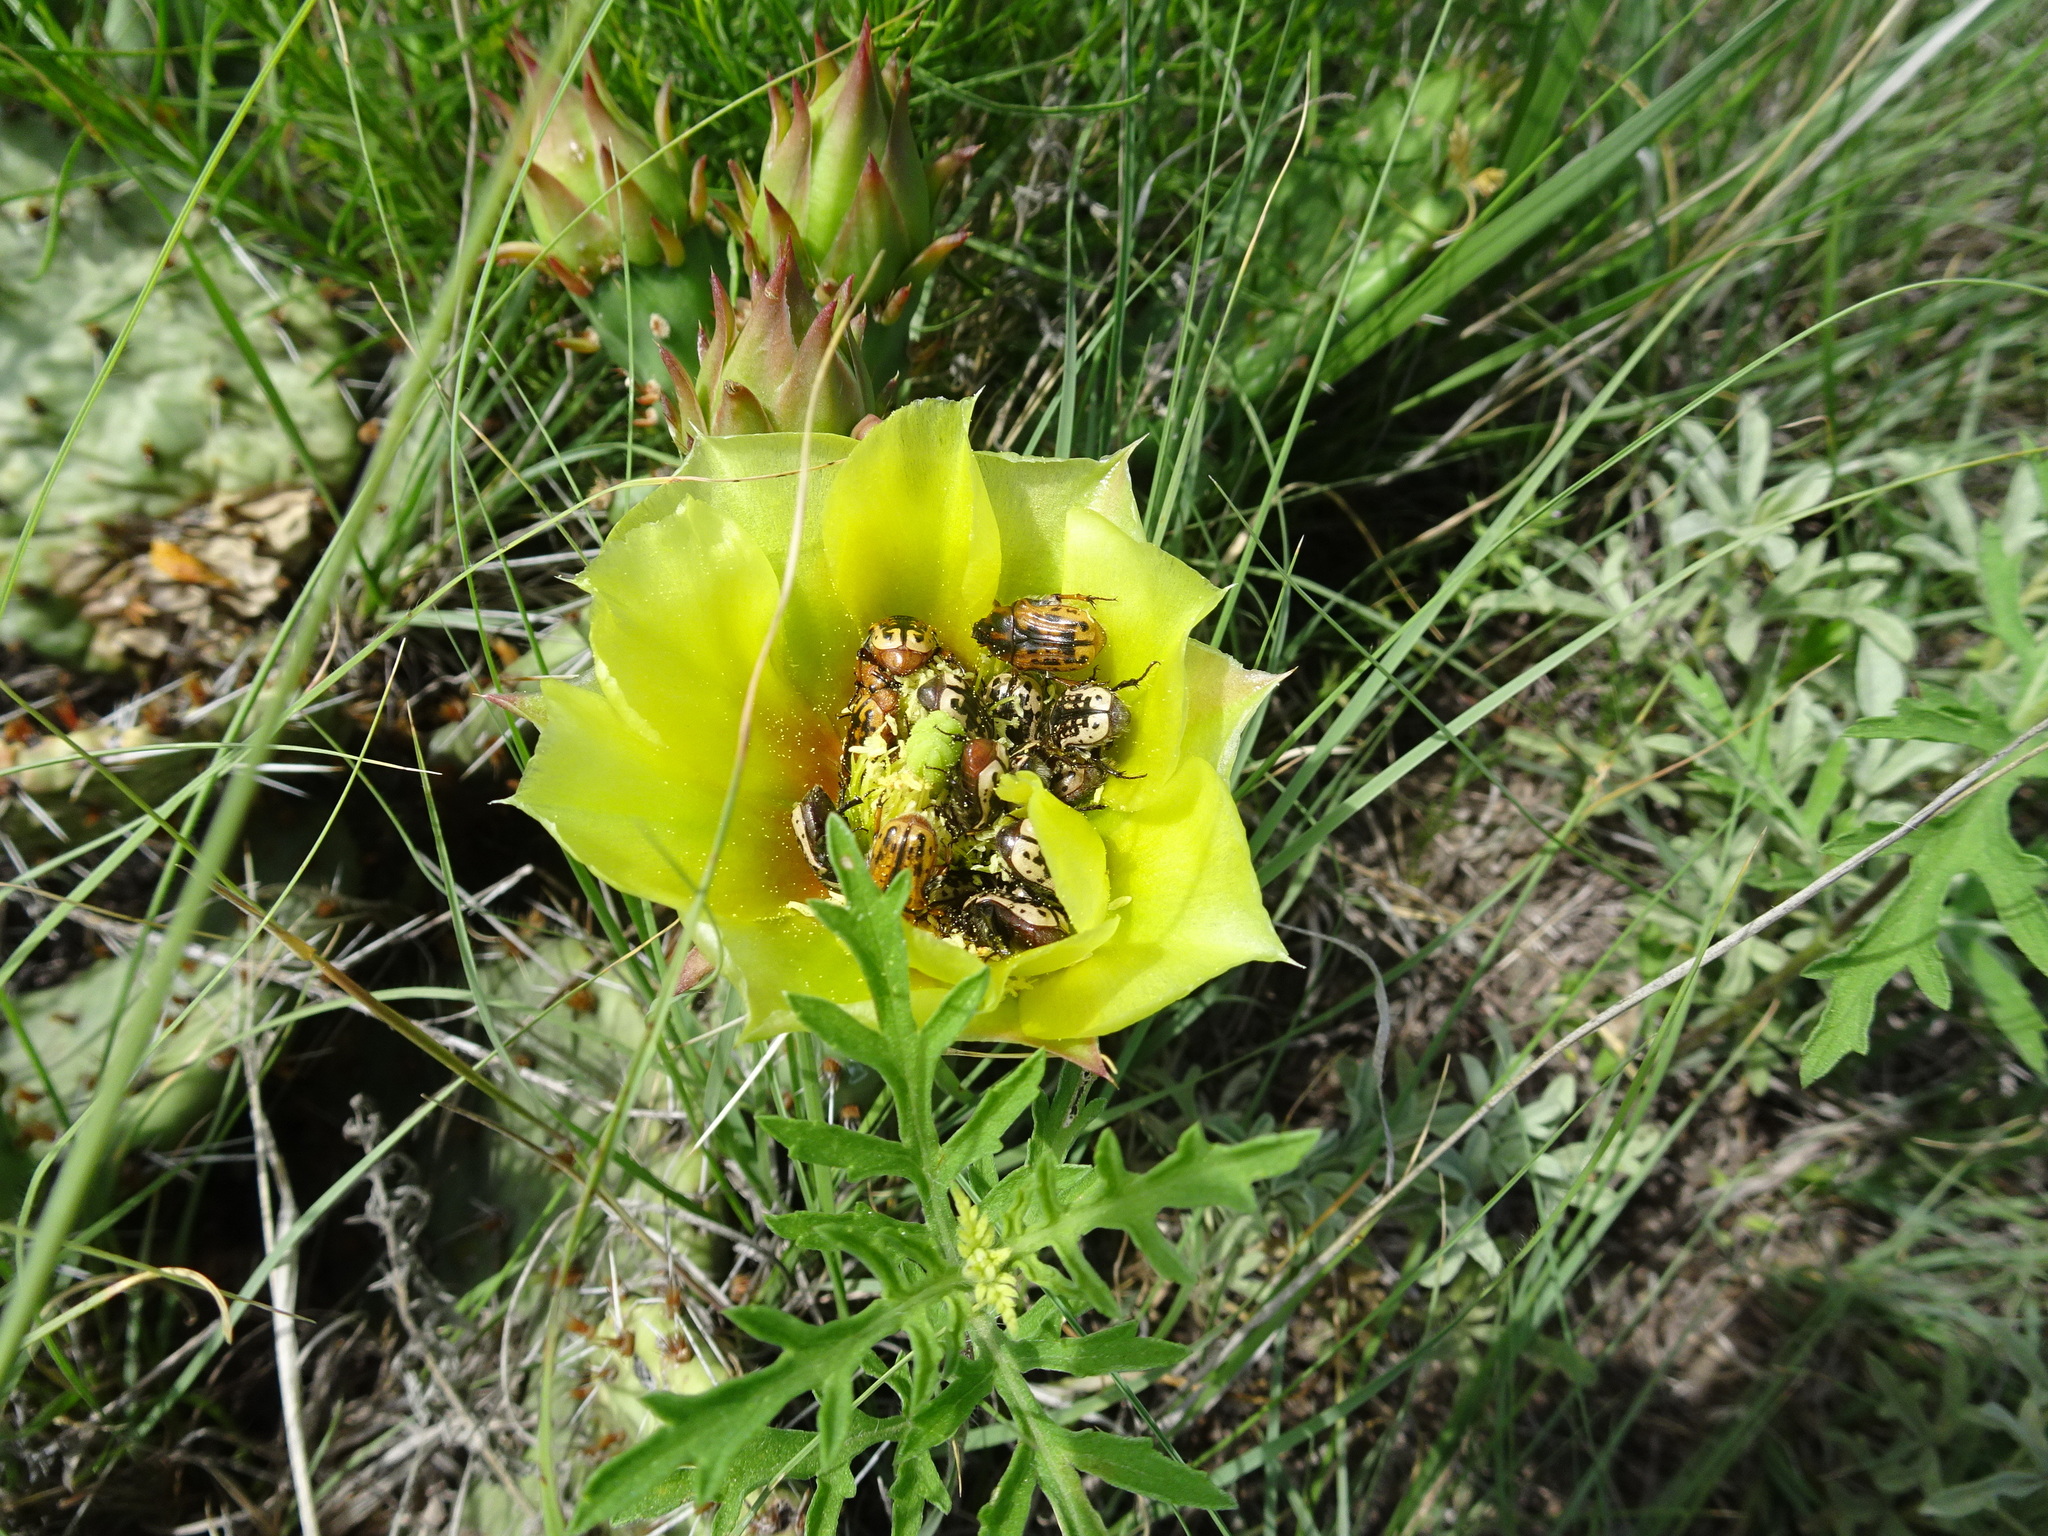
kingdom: Animalia
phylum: Arthropoda
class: Insecta
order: Coleoptera
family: Scarabaeidae
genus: Euphoria
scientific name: Euphoria kernii
